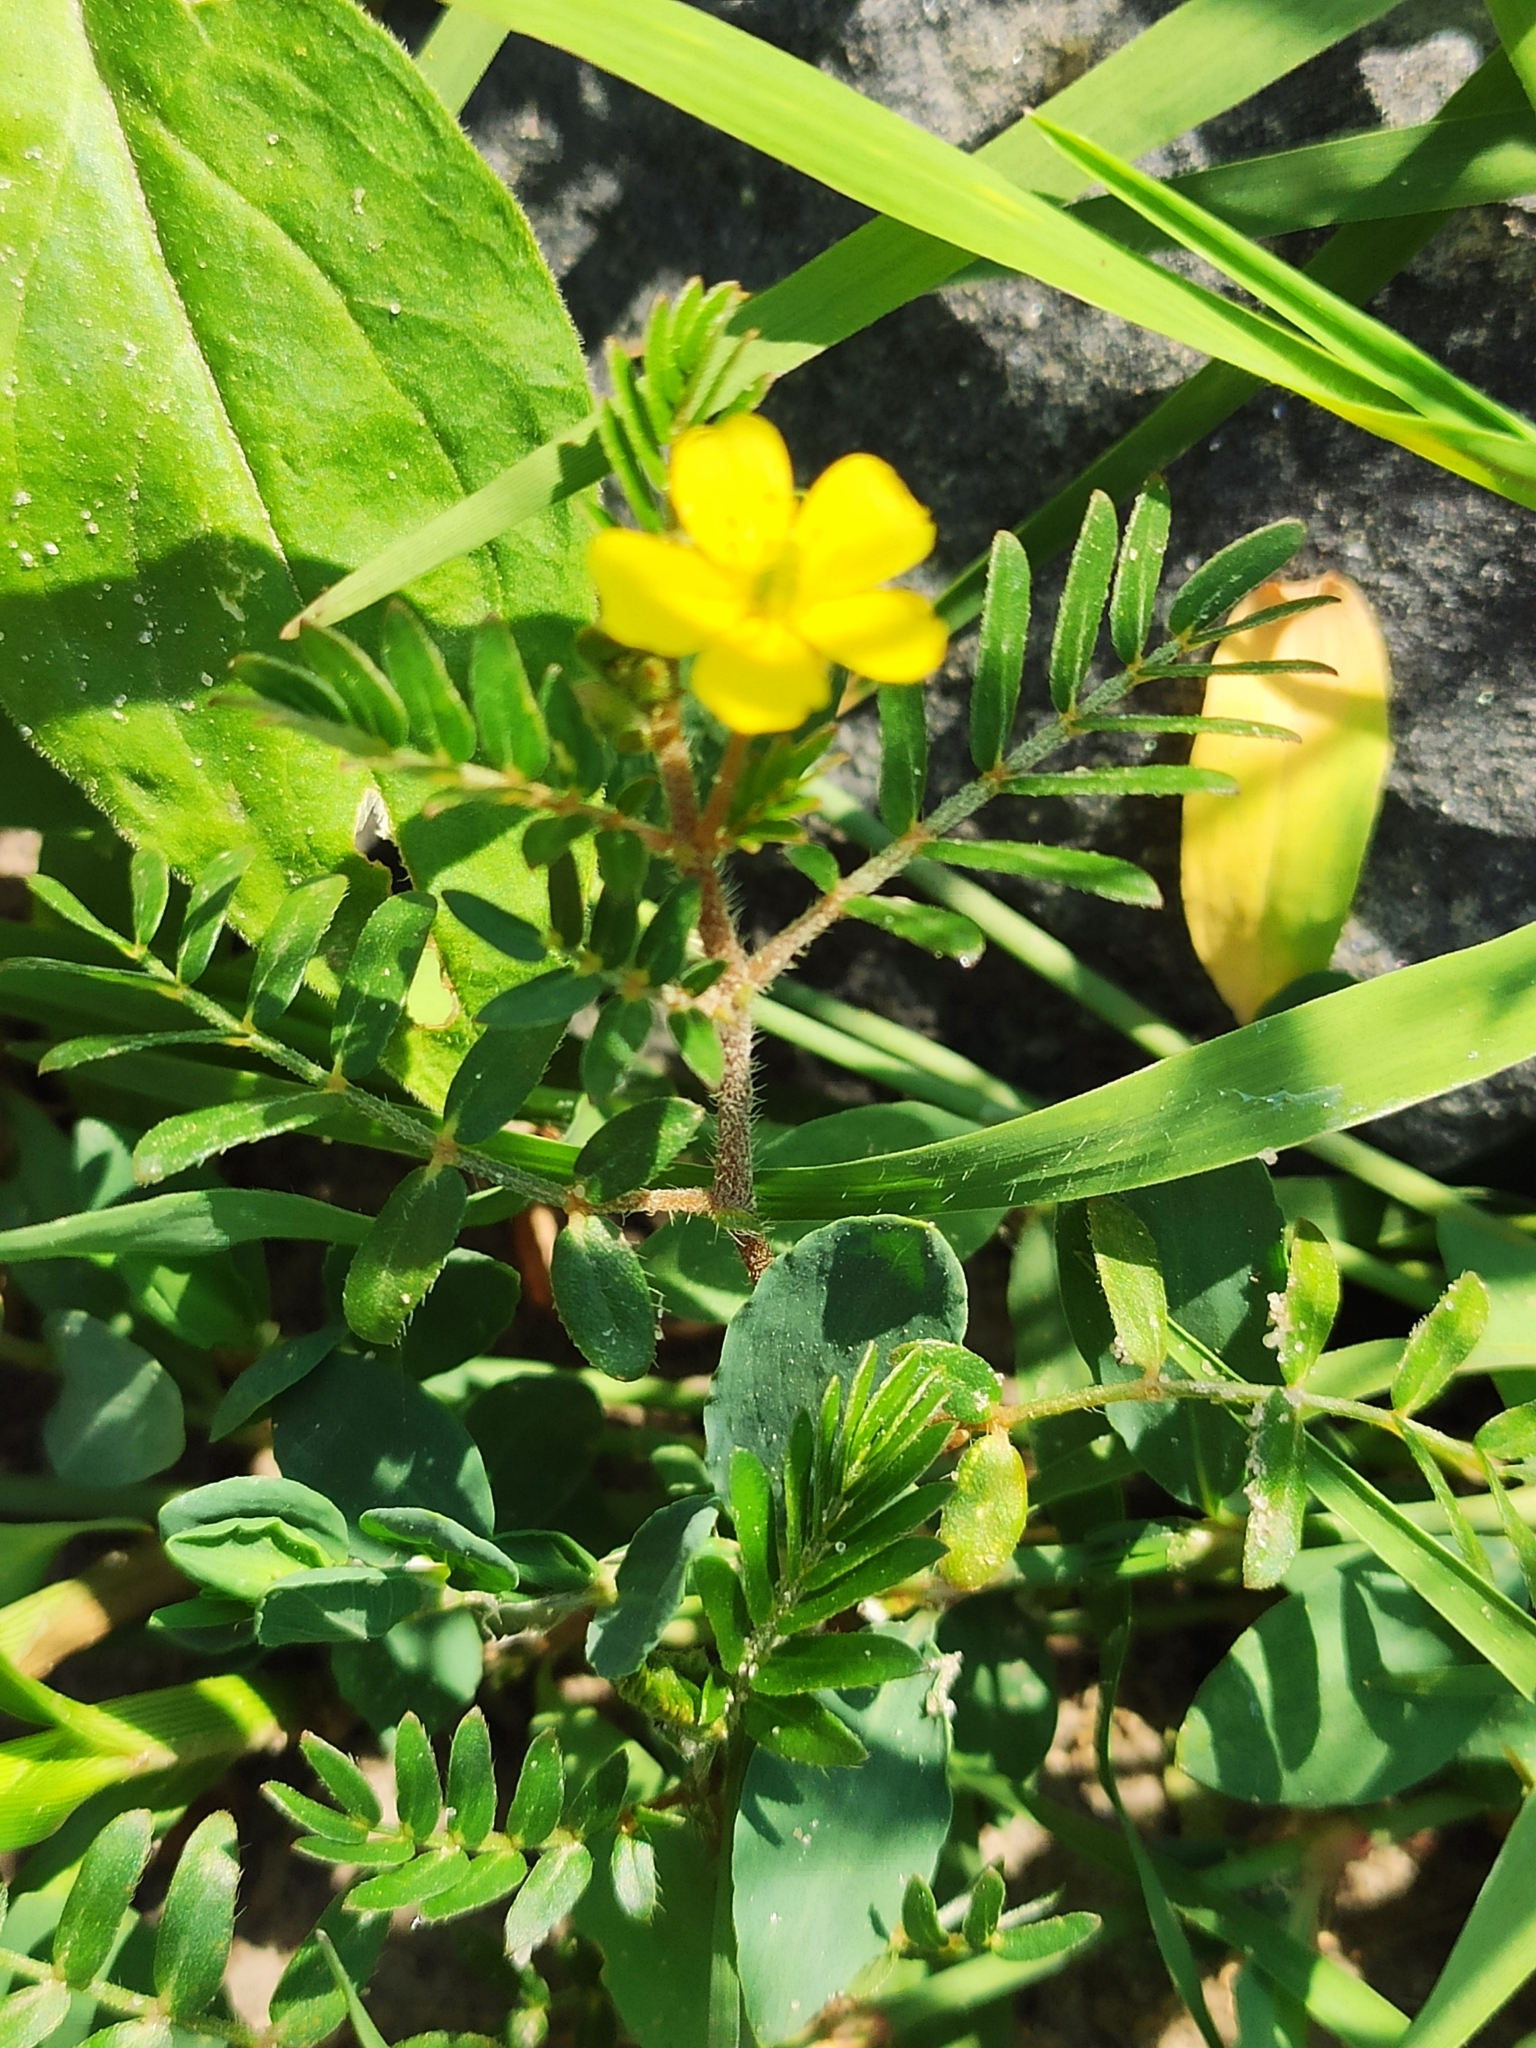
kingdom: Plantae
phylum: Tracheophyta
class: Magnoliopsida
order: Zygophyllales
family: Zygophyllaceae
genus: Tribulus
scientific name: Tribulus terrestris
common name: Puncturevine
